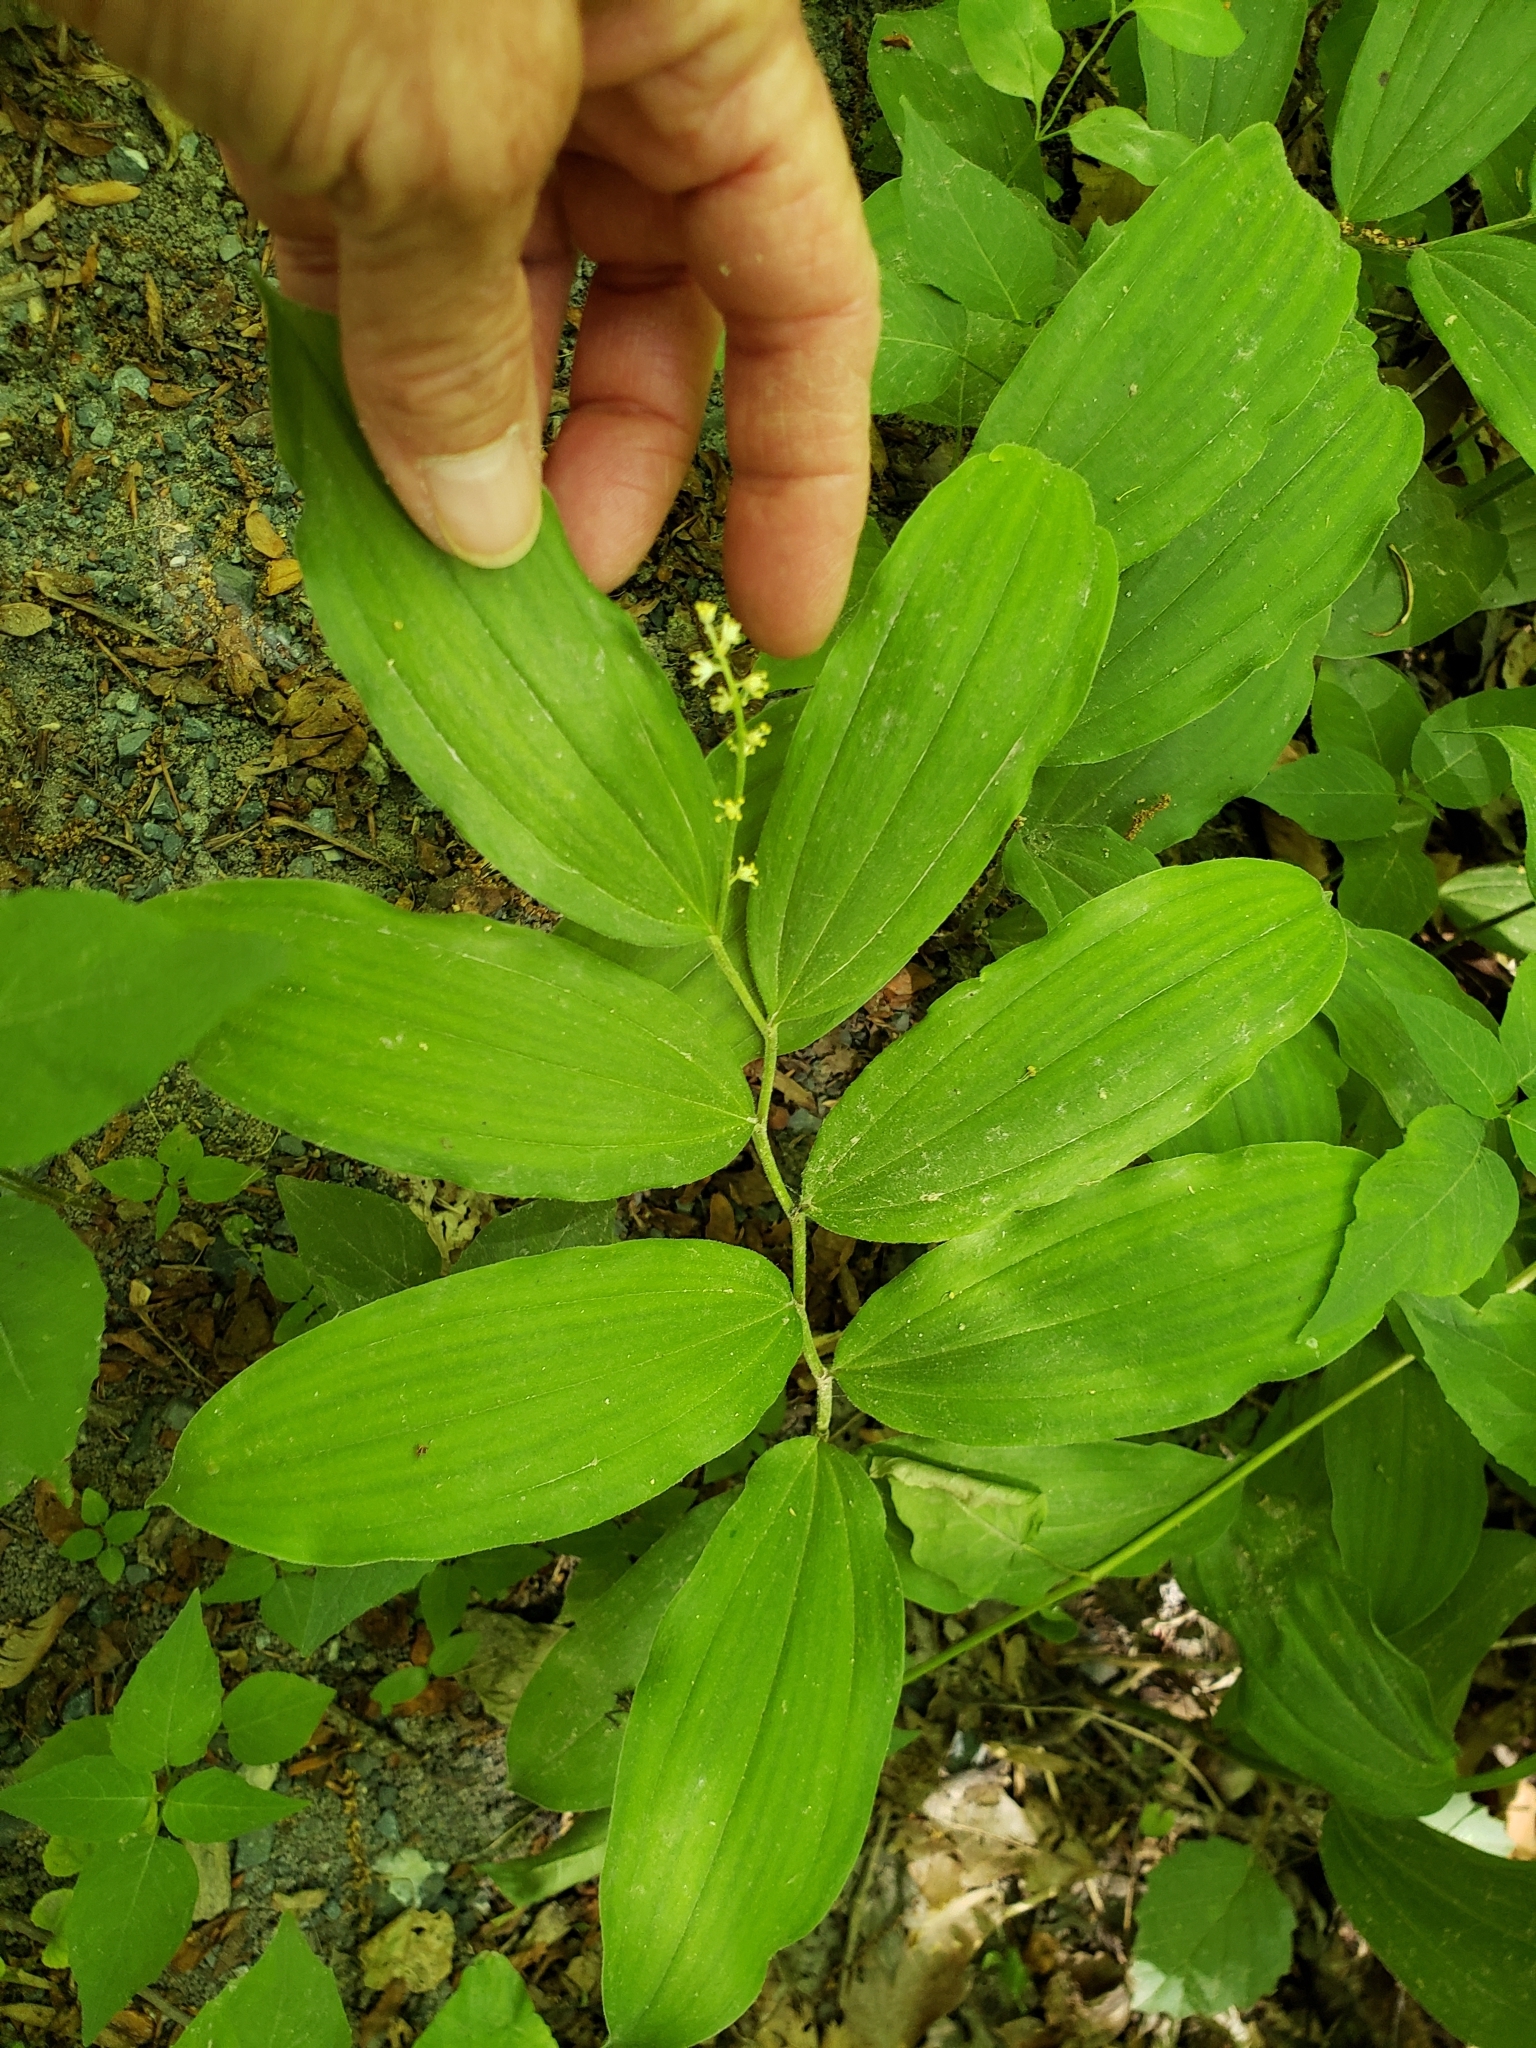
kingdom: Plantae
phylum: Tracheophyta
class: Liliopsida
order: Asparagales
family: Asparagaceae
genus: Maianthemum
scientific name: Maianthemum racemosum
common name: False spikenard
